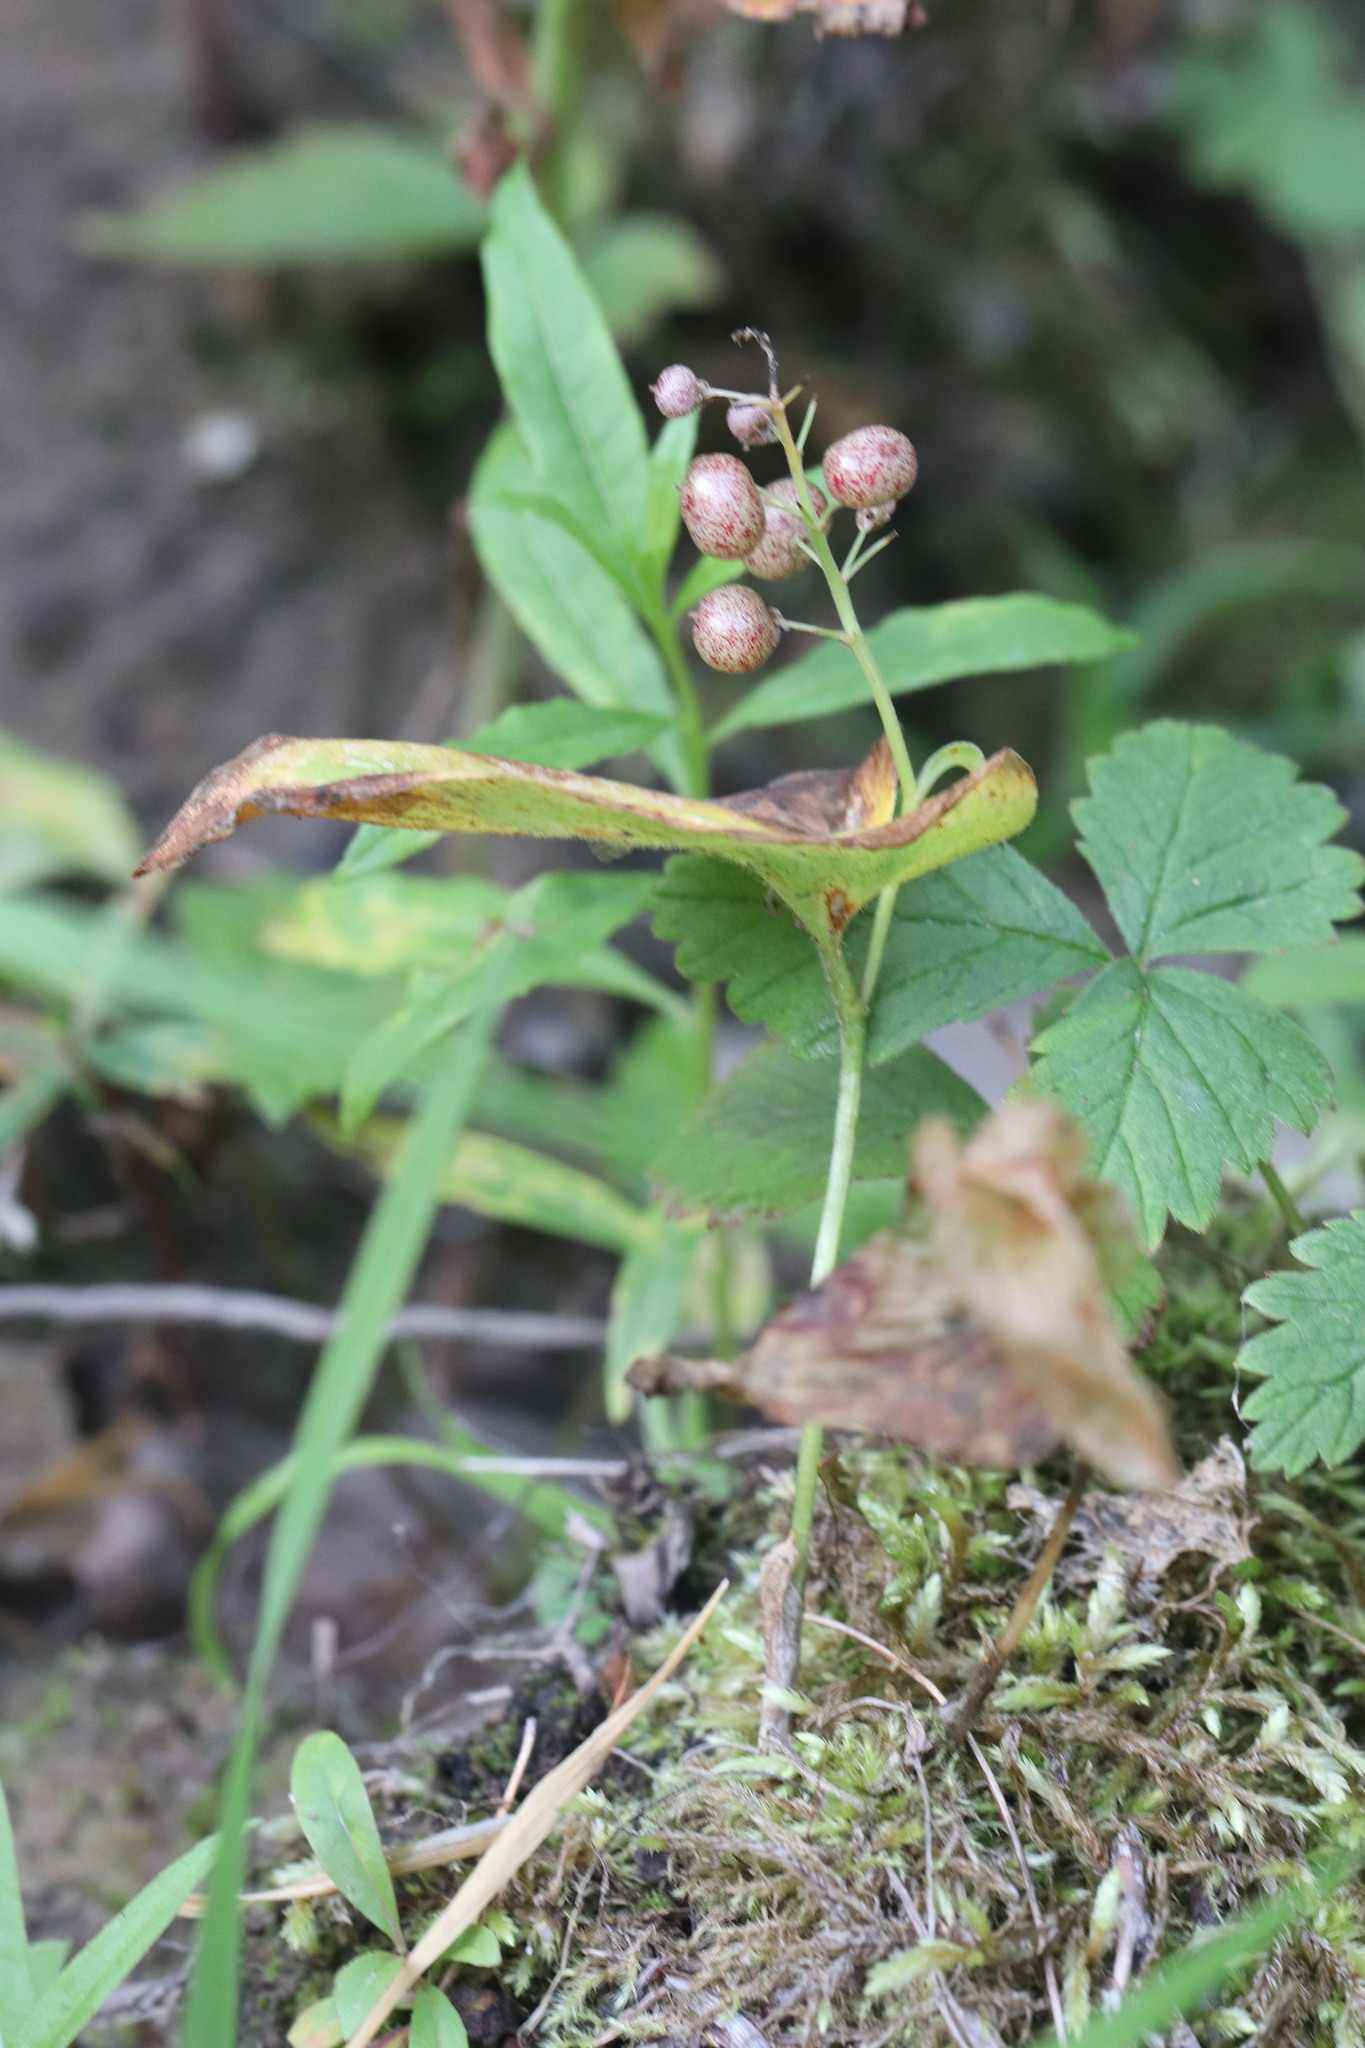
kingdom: Plantae
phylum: Tracheophyta
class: Liliopsida
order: Asparagales
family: Asparagaceae
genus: Maianthemum
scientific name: Maianthemum bifolium
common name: May lily
